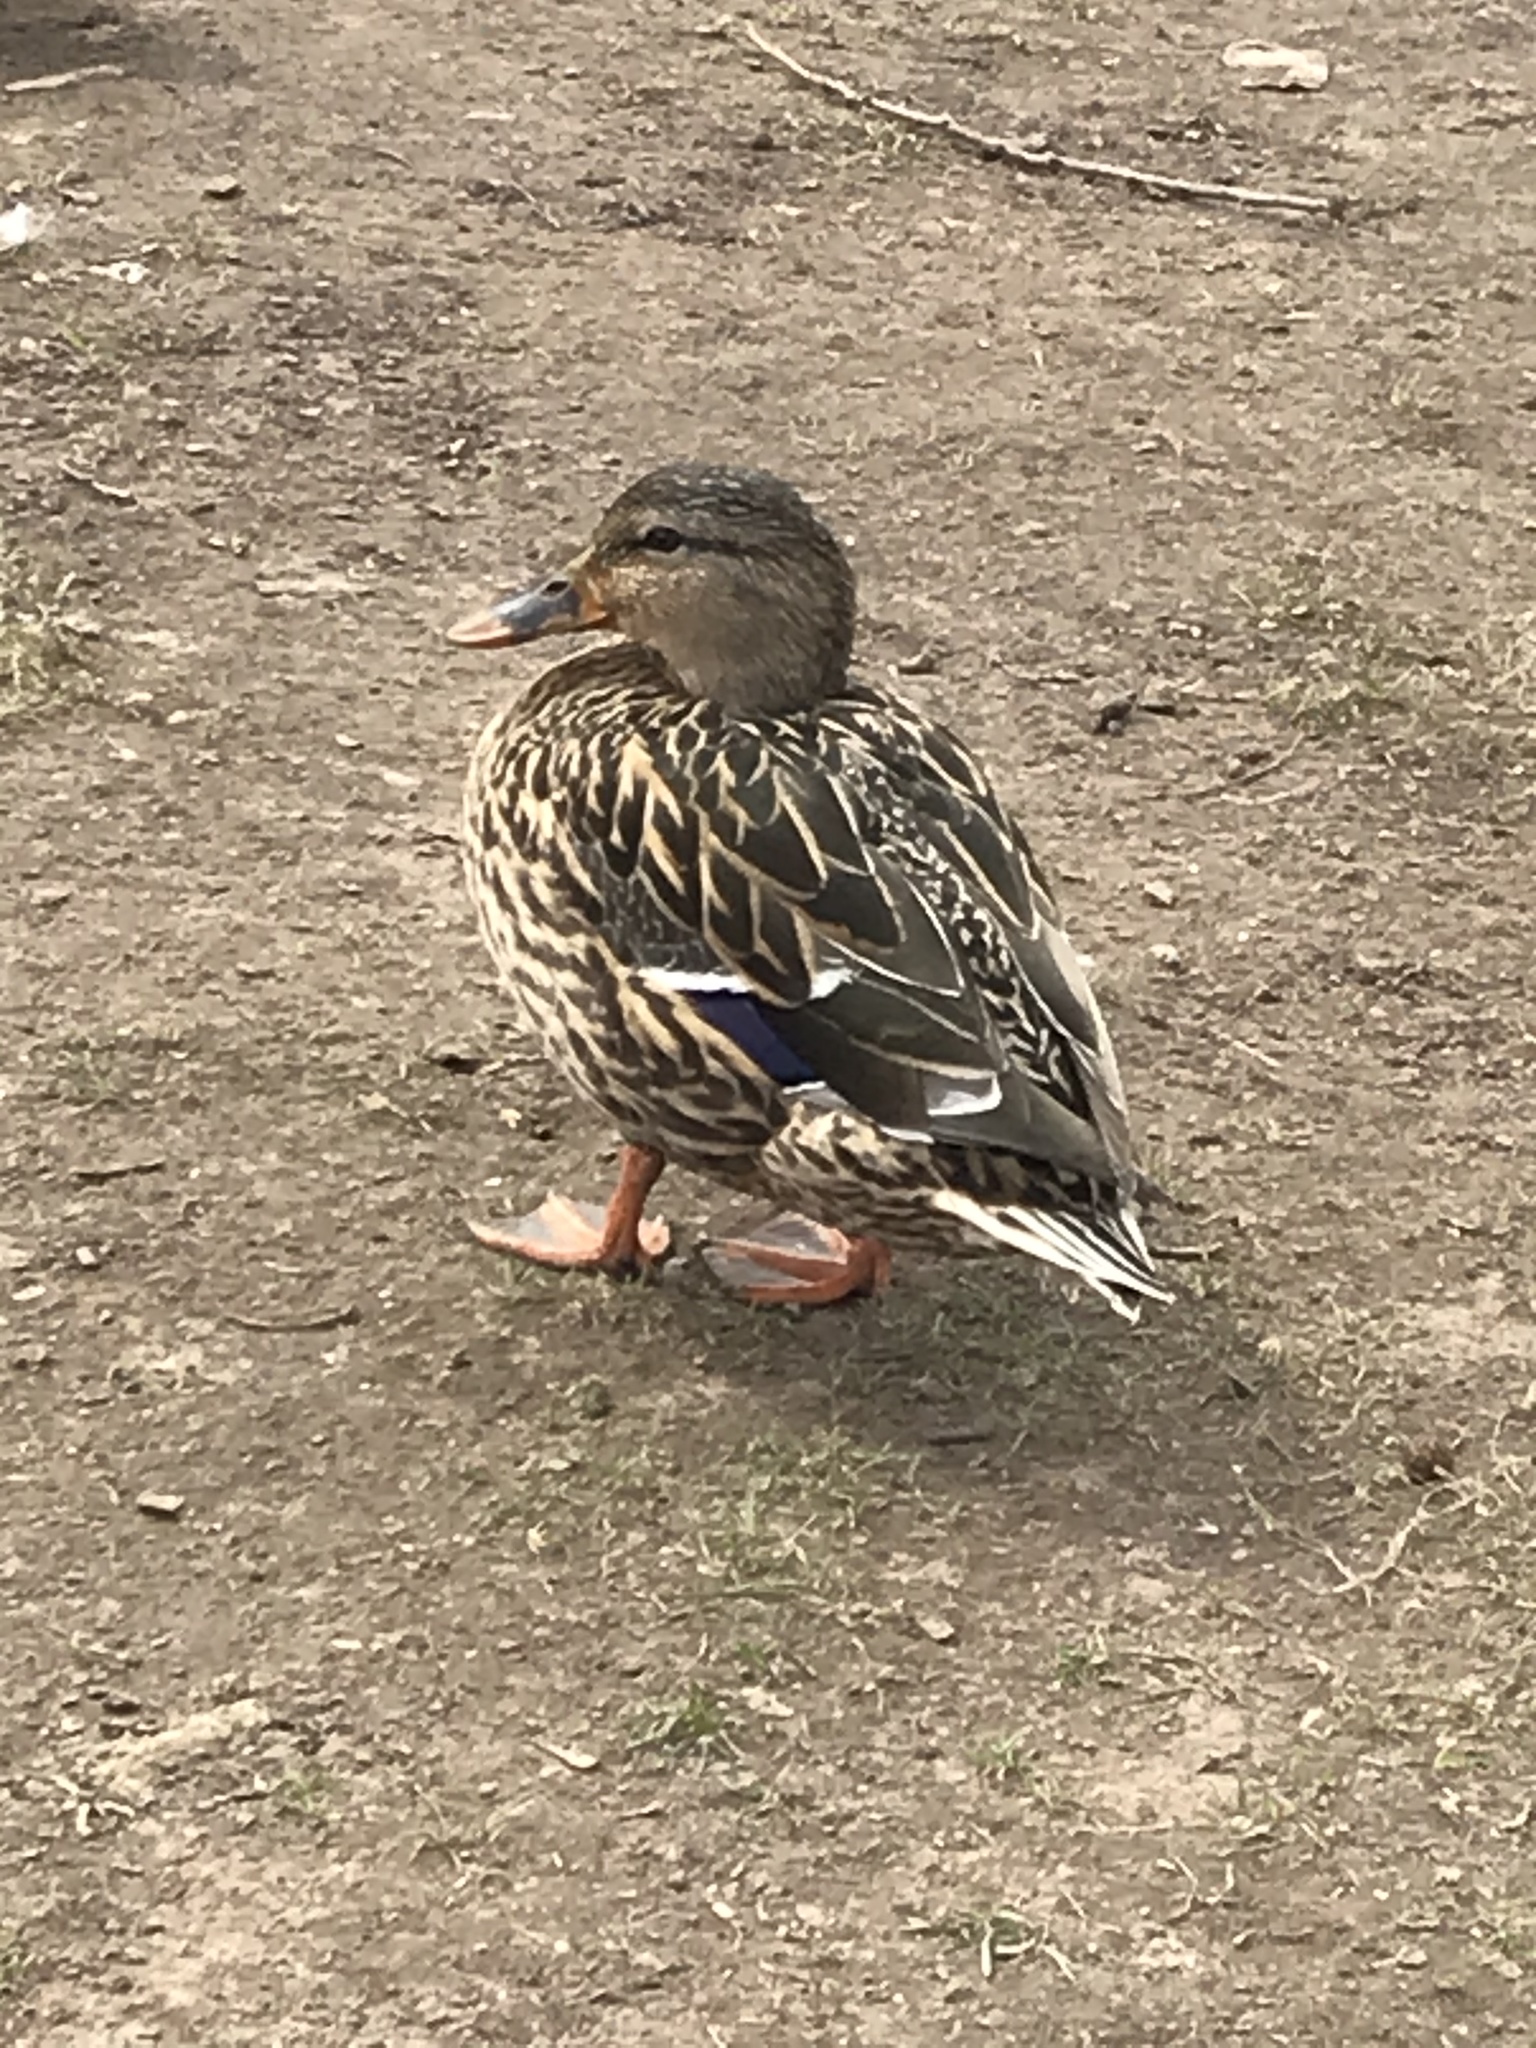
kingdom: Animalia
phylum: Chordata
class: Aves
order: Anseriformes
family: Anatidae
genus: Anas
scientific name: Anas platyrhynchos
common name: Mallard
